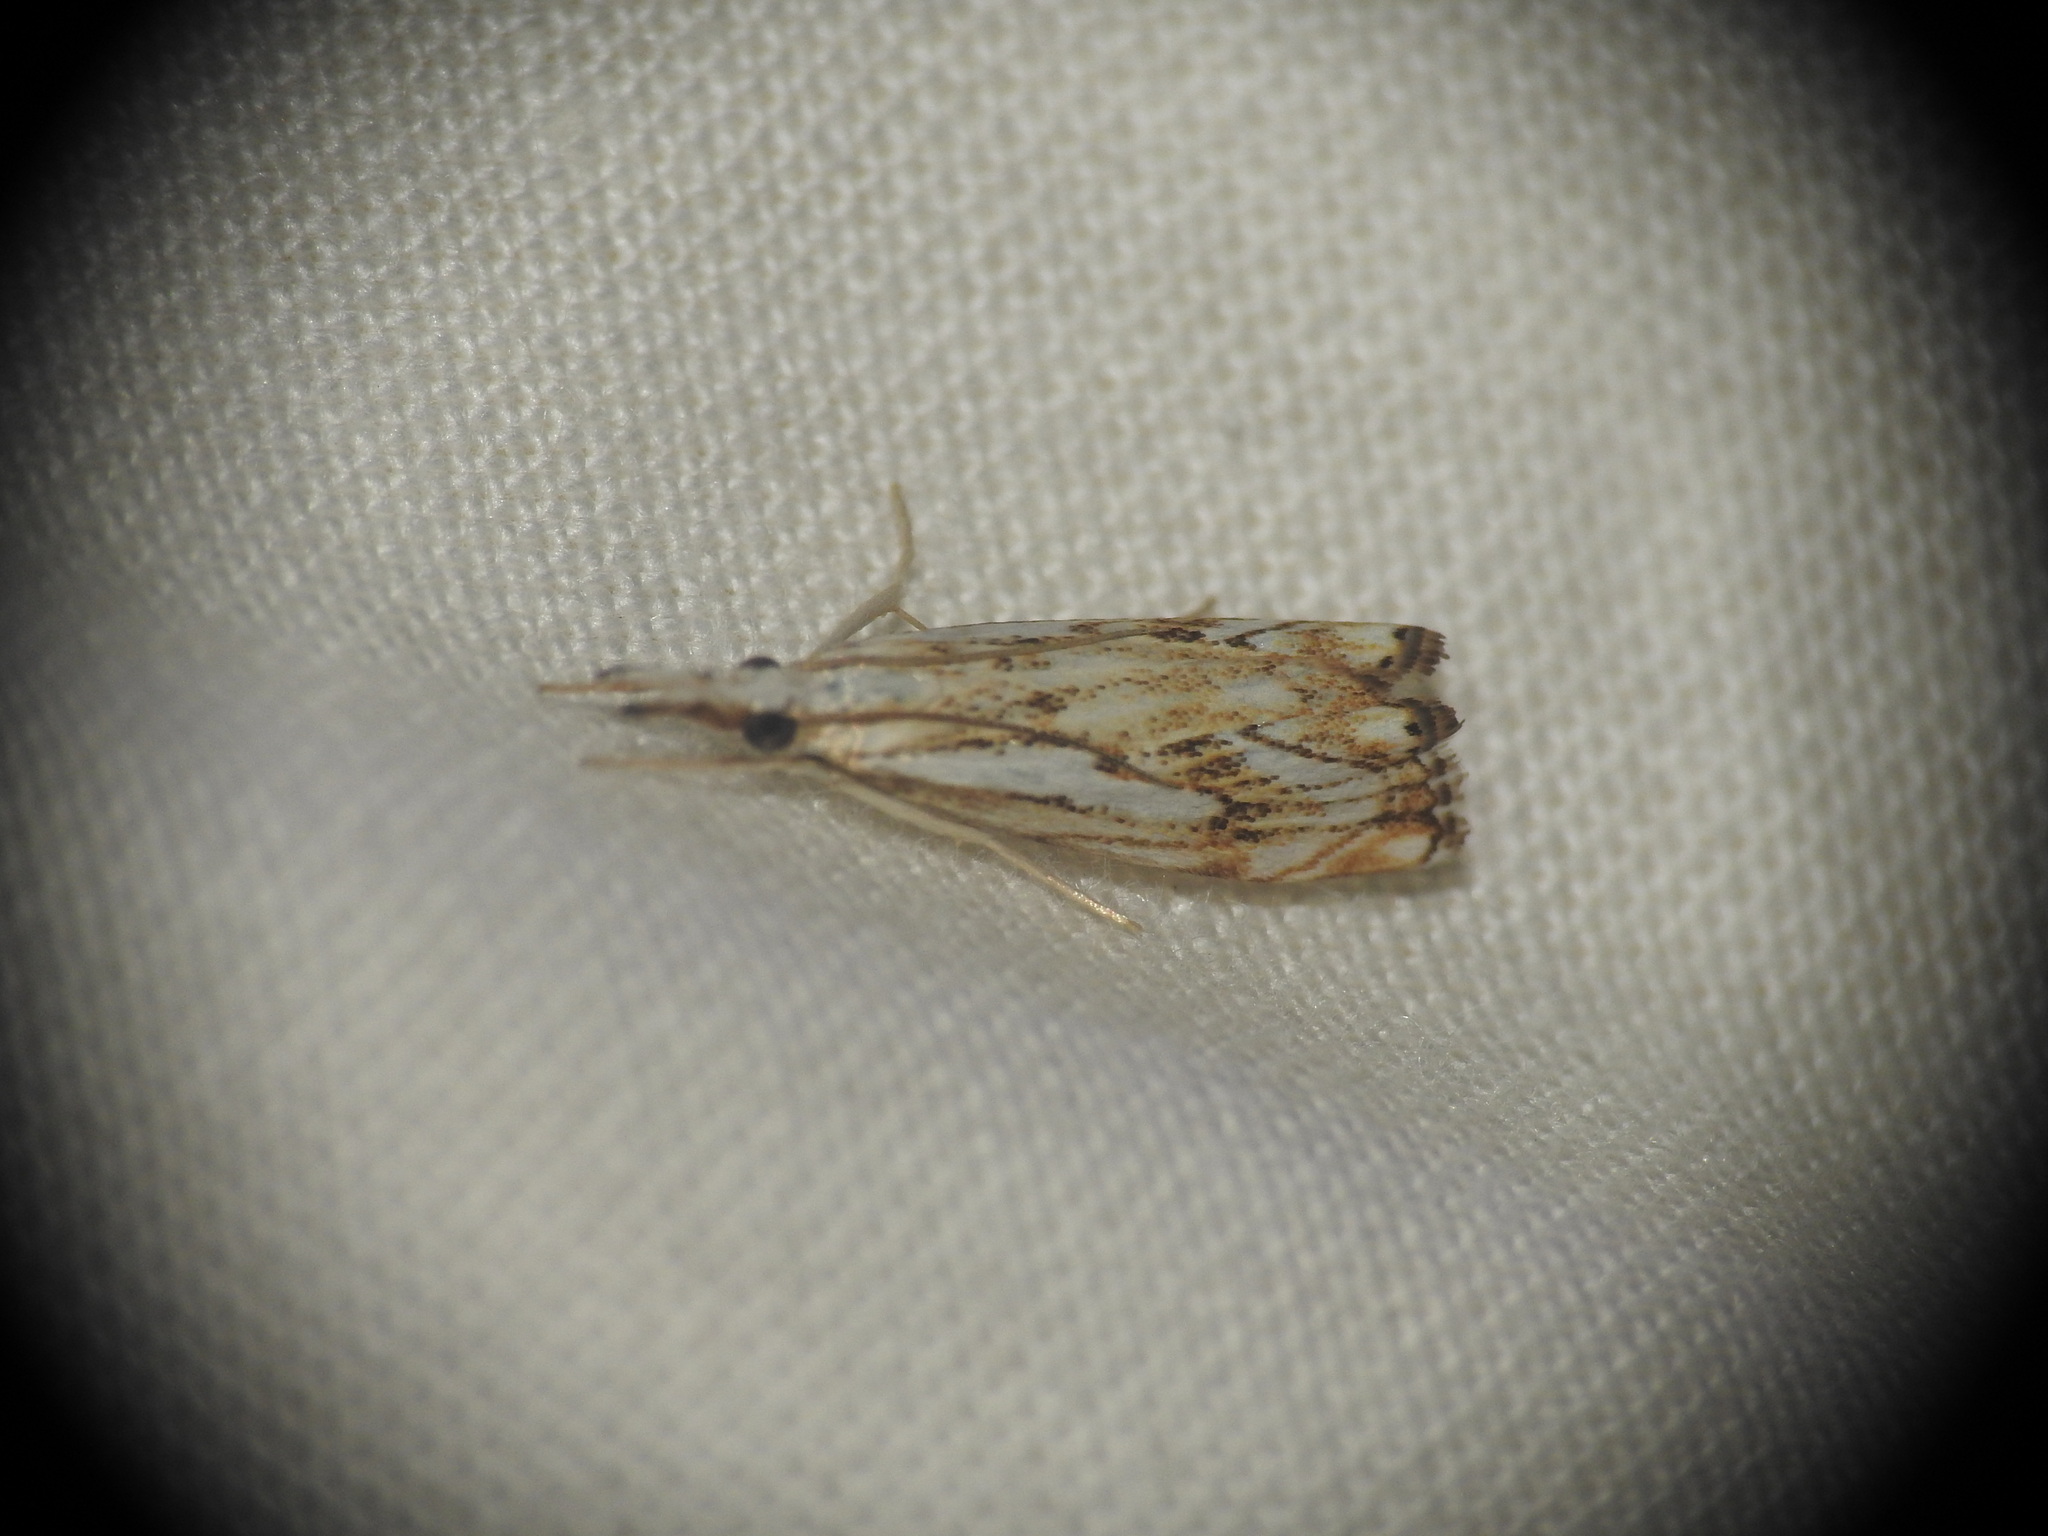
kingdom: Animalia
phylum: Arthropoda
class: Insecta
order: Lepidoptera
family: Crambidae
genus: Catoptria
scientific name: Catoptria falsella
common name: Chequered grass-veneer
